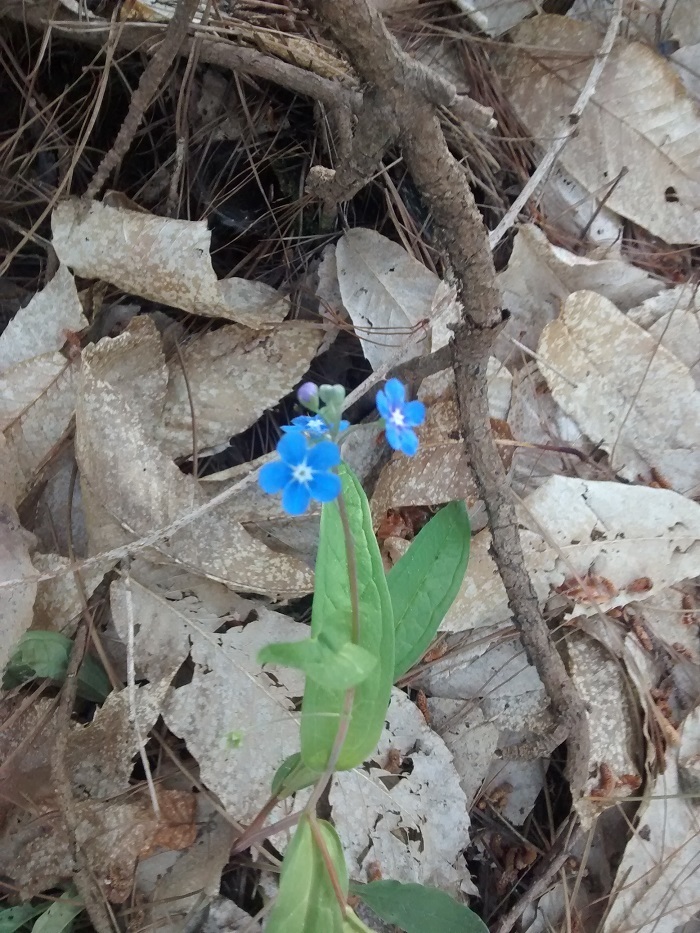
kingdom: Plantae
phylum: Tracheophyta
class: Magnoliopsida
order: Boraginales
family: Boraginaceae
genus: Omphalodes
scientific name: Omphalodes nitida
